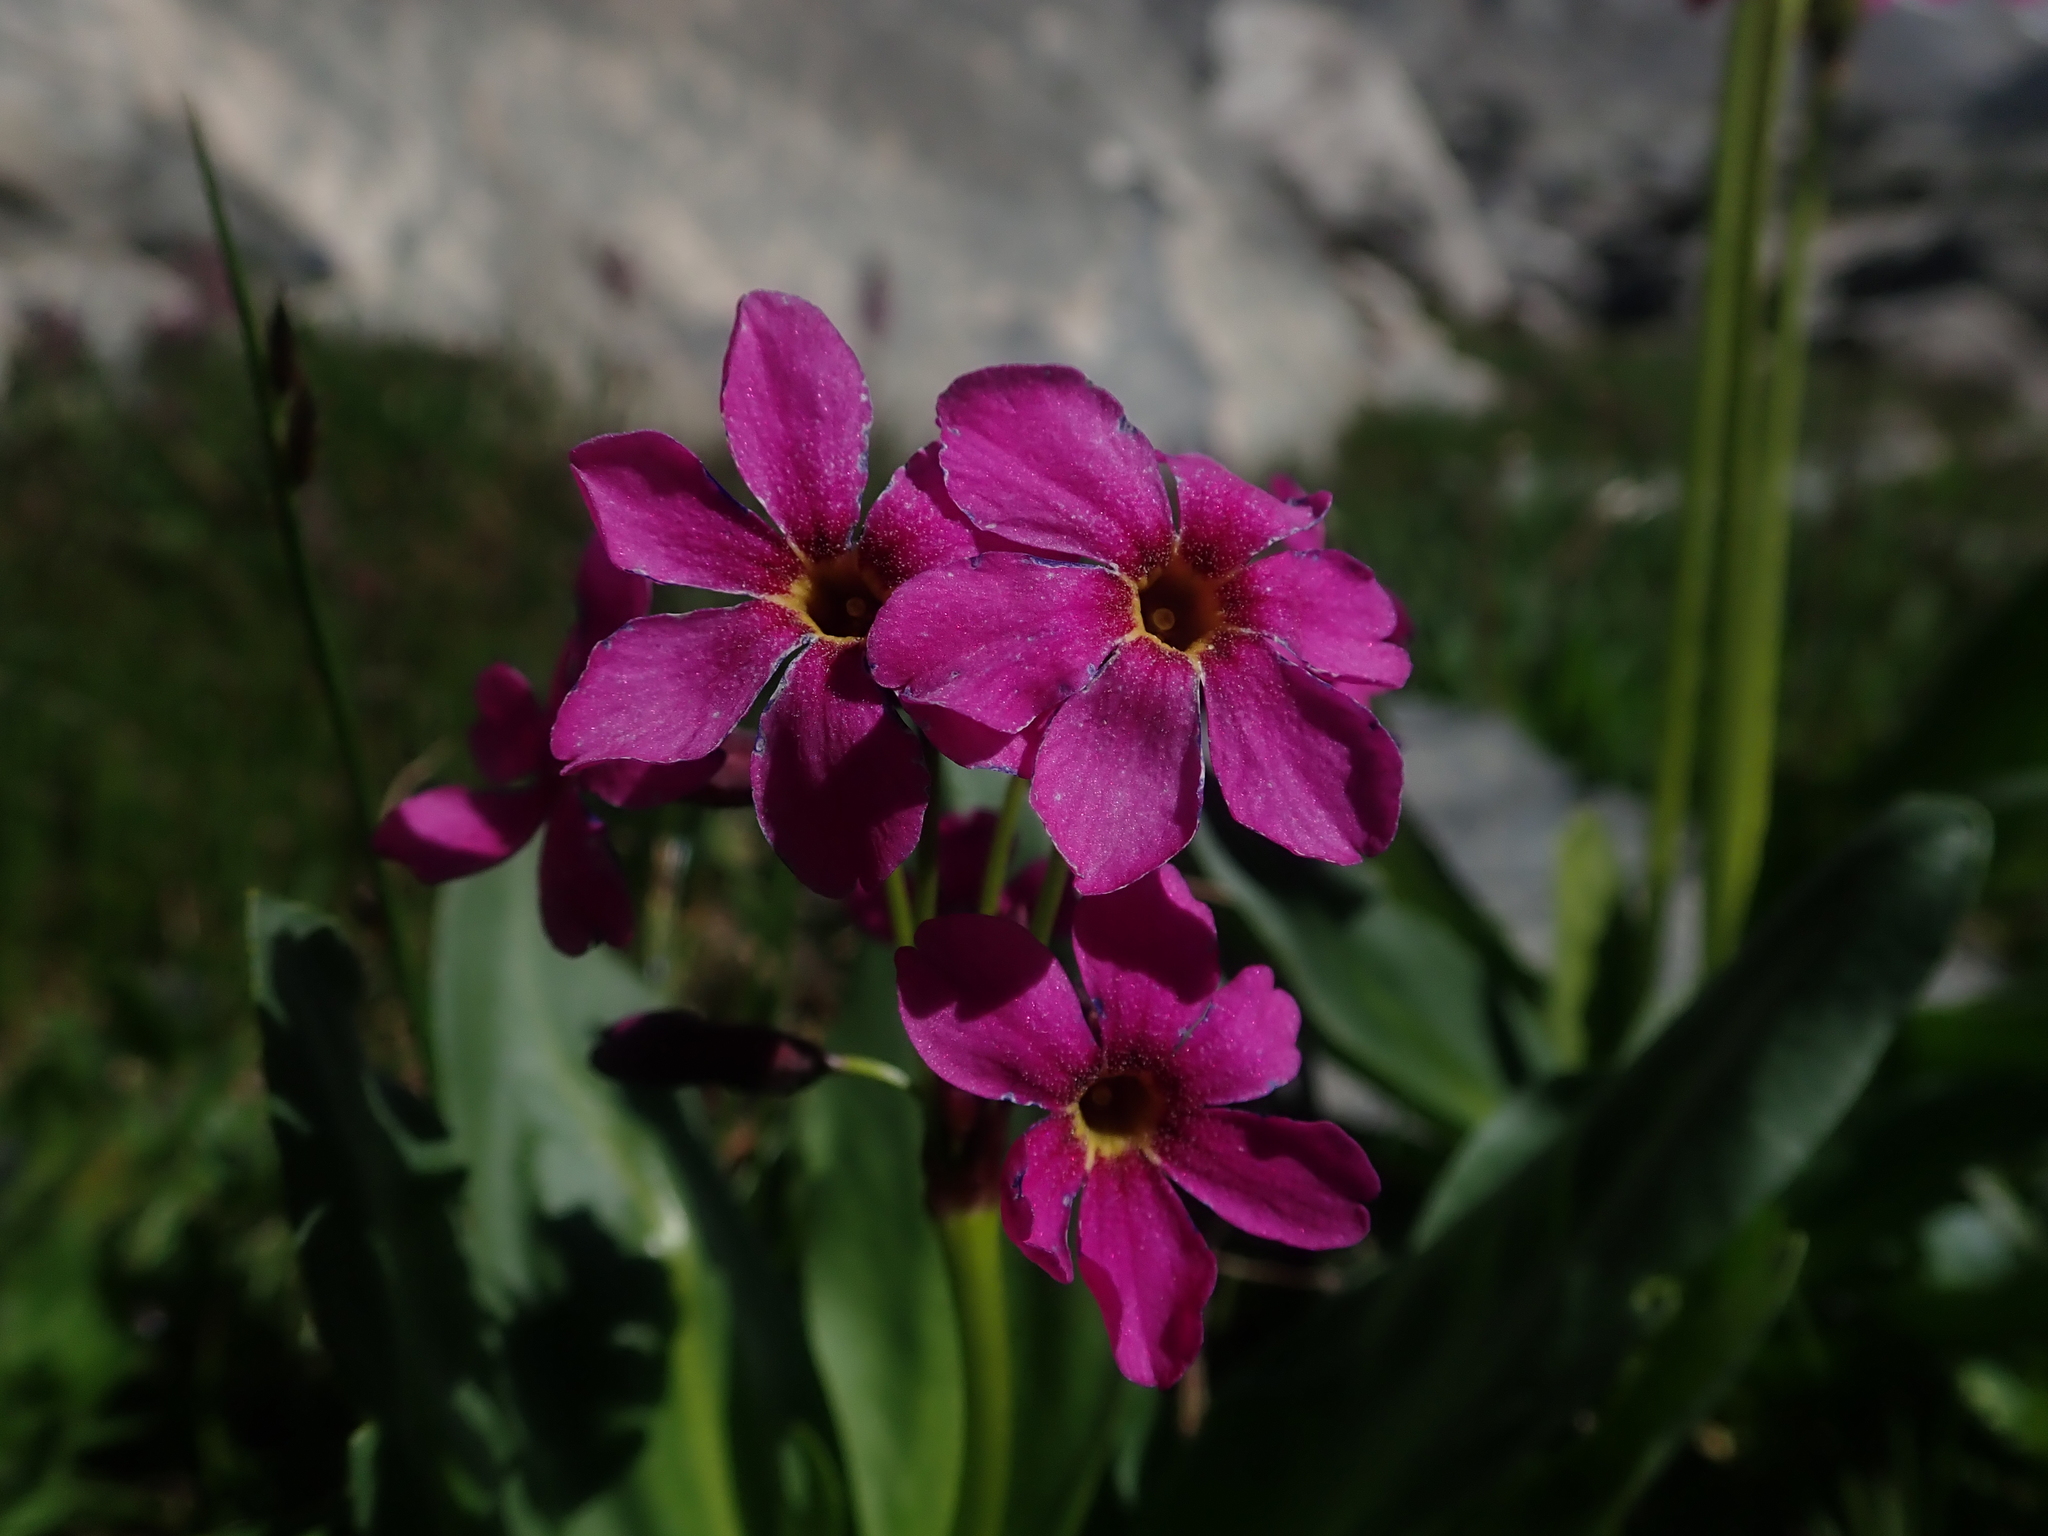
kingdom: Plantae
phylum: Tracheophyta
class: Magnoliopsida
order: Ericales
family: Primulaceae
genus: Primula
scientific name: Primula parryi
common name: Parry's primrose
